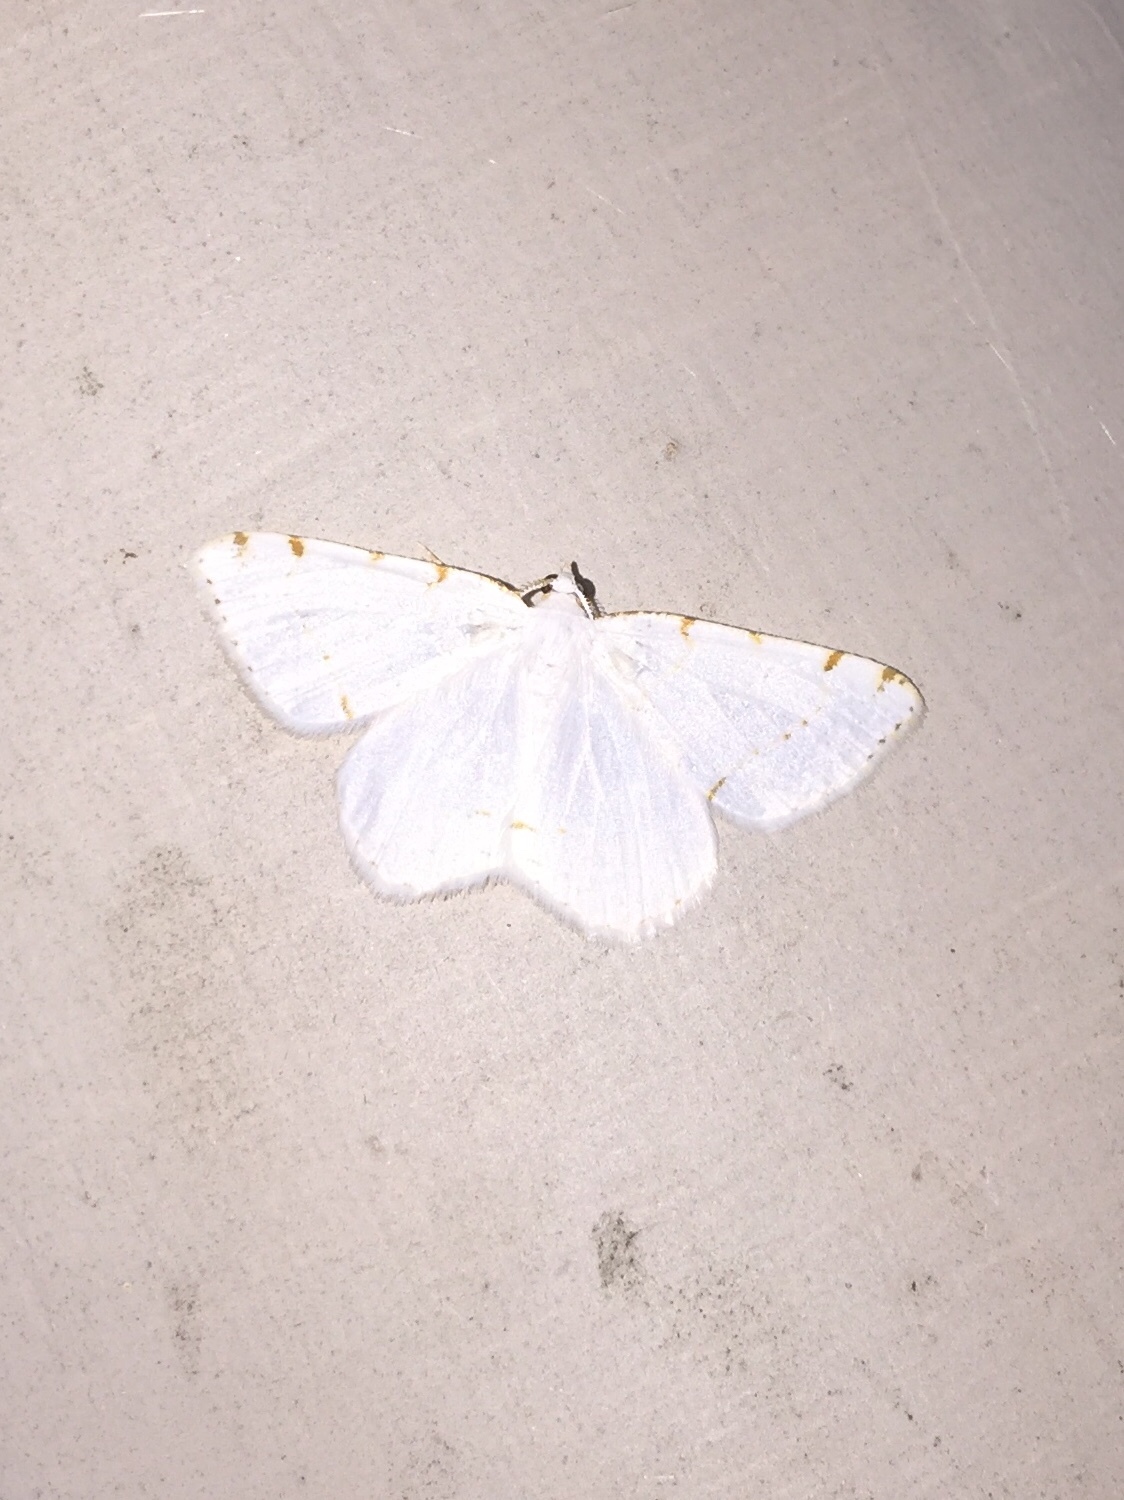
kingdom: Animalia
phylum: Arthropoda
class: Insecta
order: Lepidoptera
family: Geometridae
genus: Macaria
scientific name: Macaria pustularia
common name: Lesser maple spanworm moth
